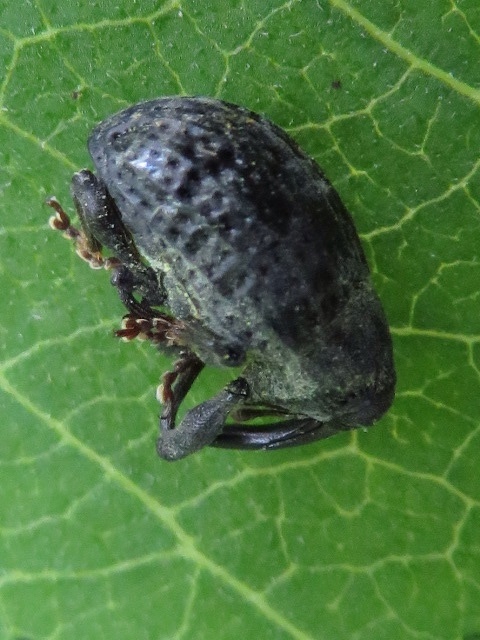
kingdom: Animalia
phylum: Arthropoda
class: Insecta
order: Coleoptera
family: Curculionidae
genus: Rhyssomatus
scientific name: Rhyssomatus lineaticollis
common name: Milkweed stem weevil
